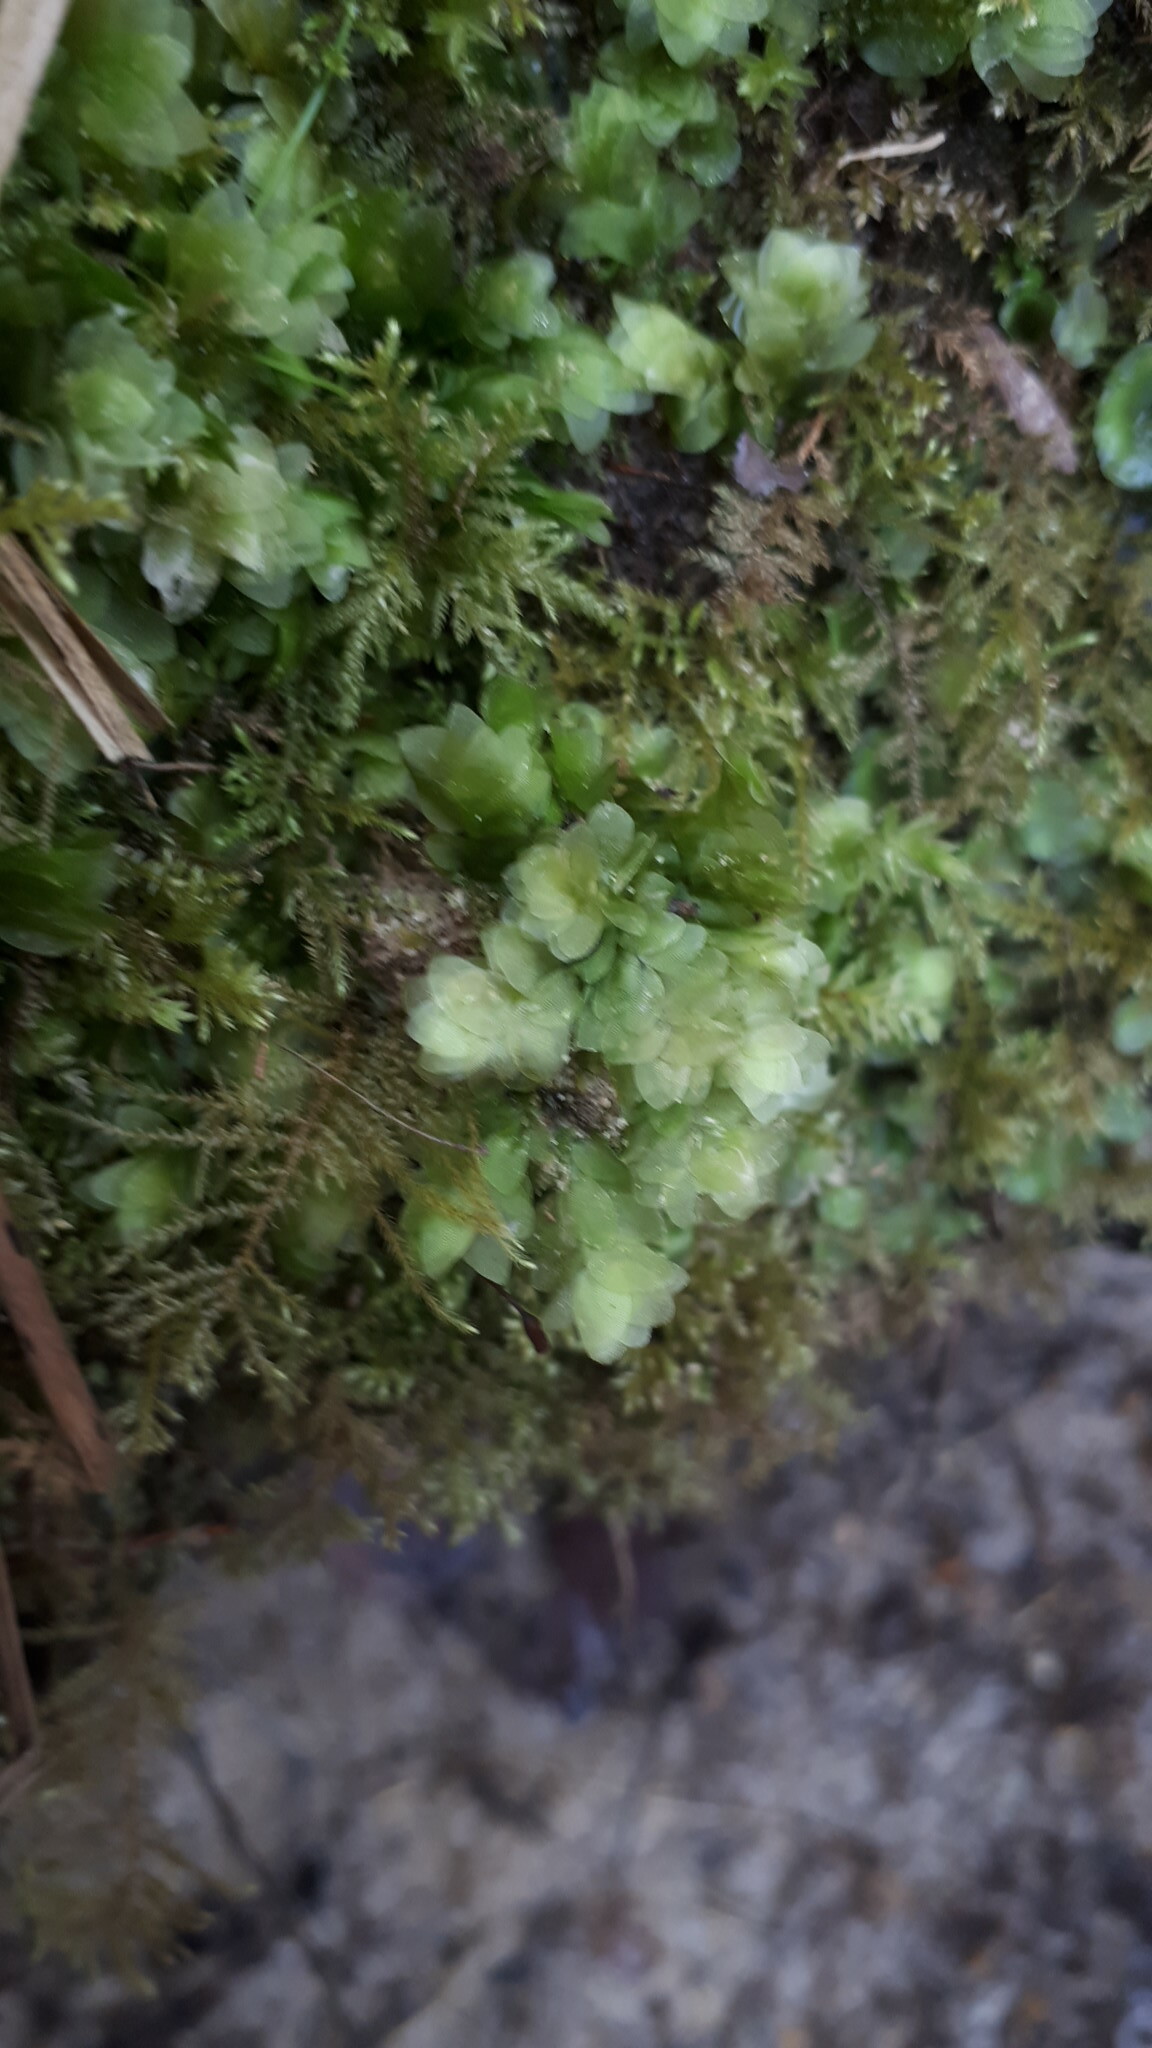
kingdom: Plantae
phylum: Bryophyta
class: Bryopsida
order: Hookeriales
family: Hookeriaceae
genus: Hookeria
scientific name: Hookeria lucens
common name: Shining hookeria
